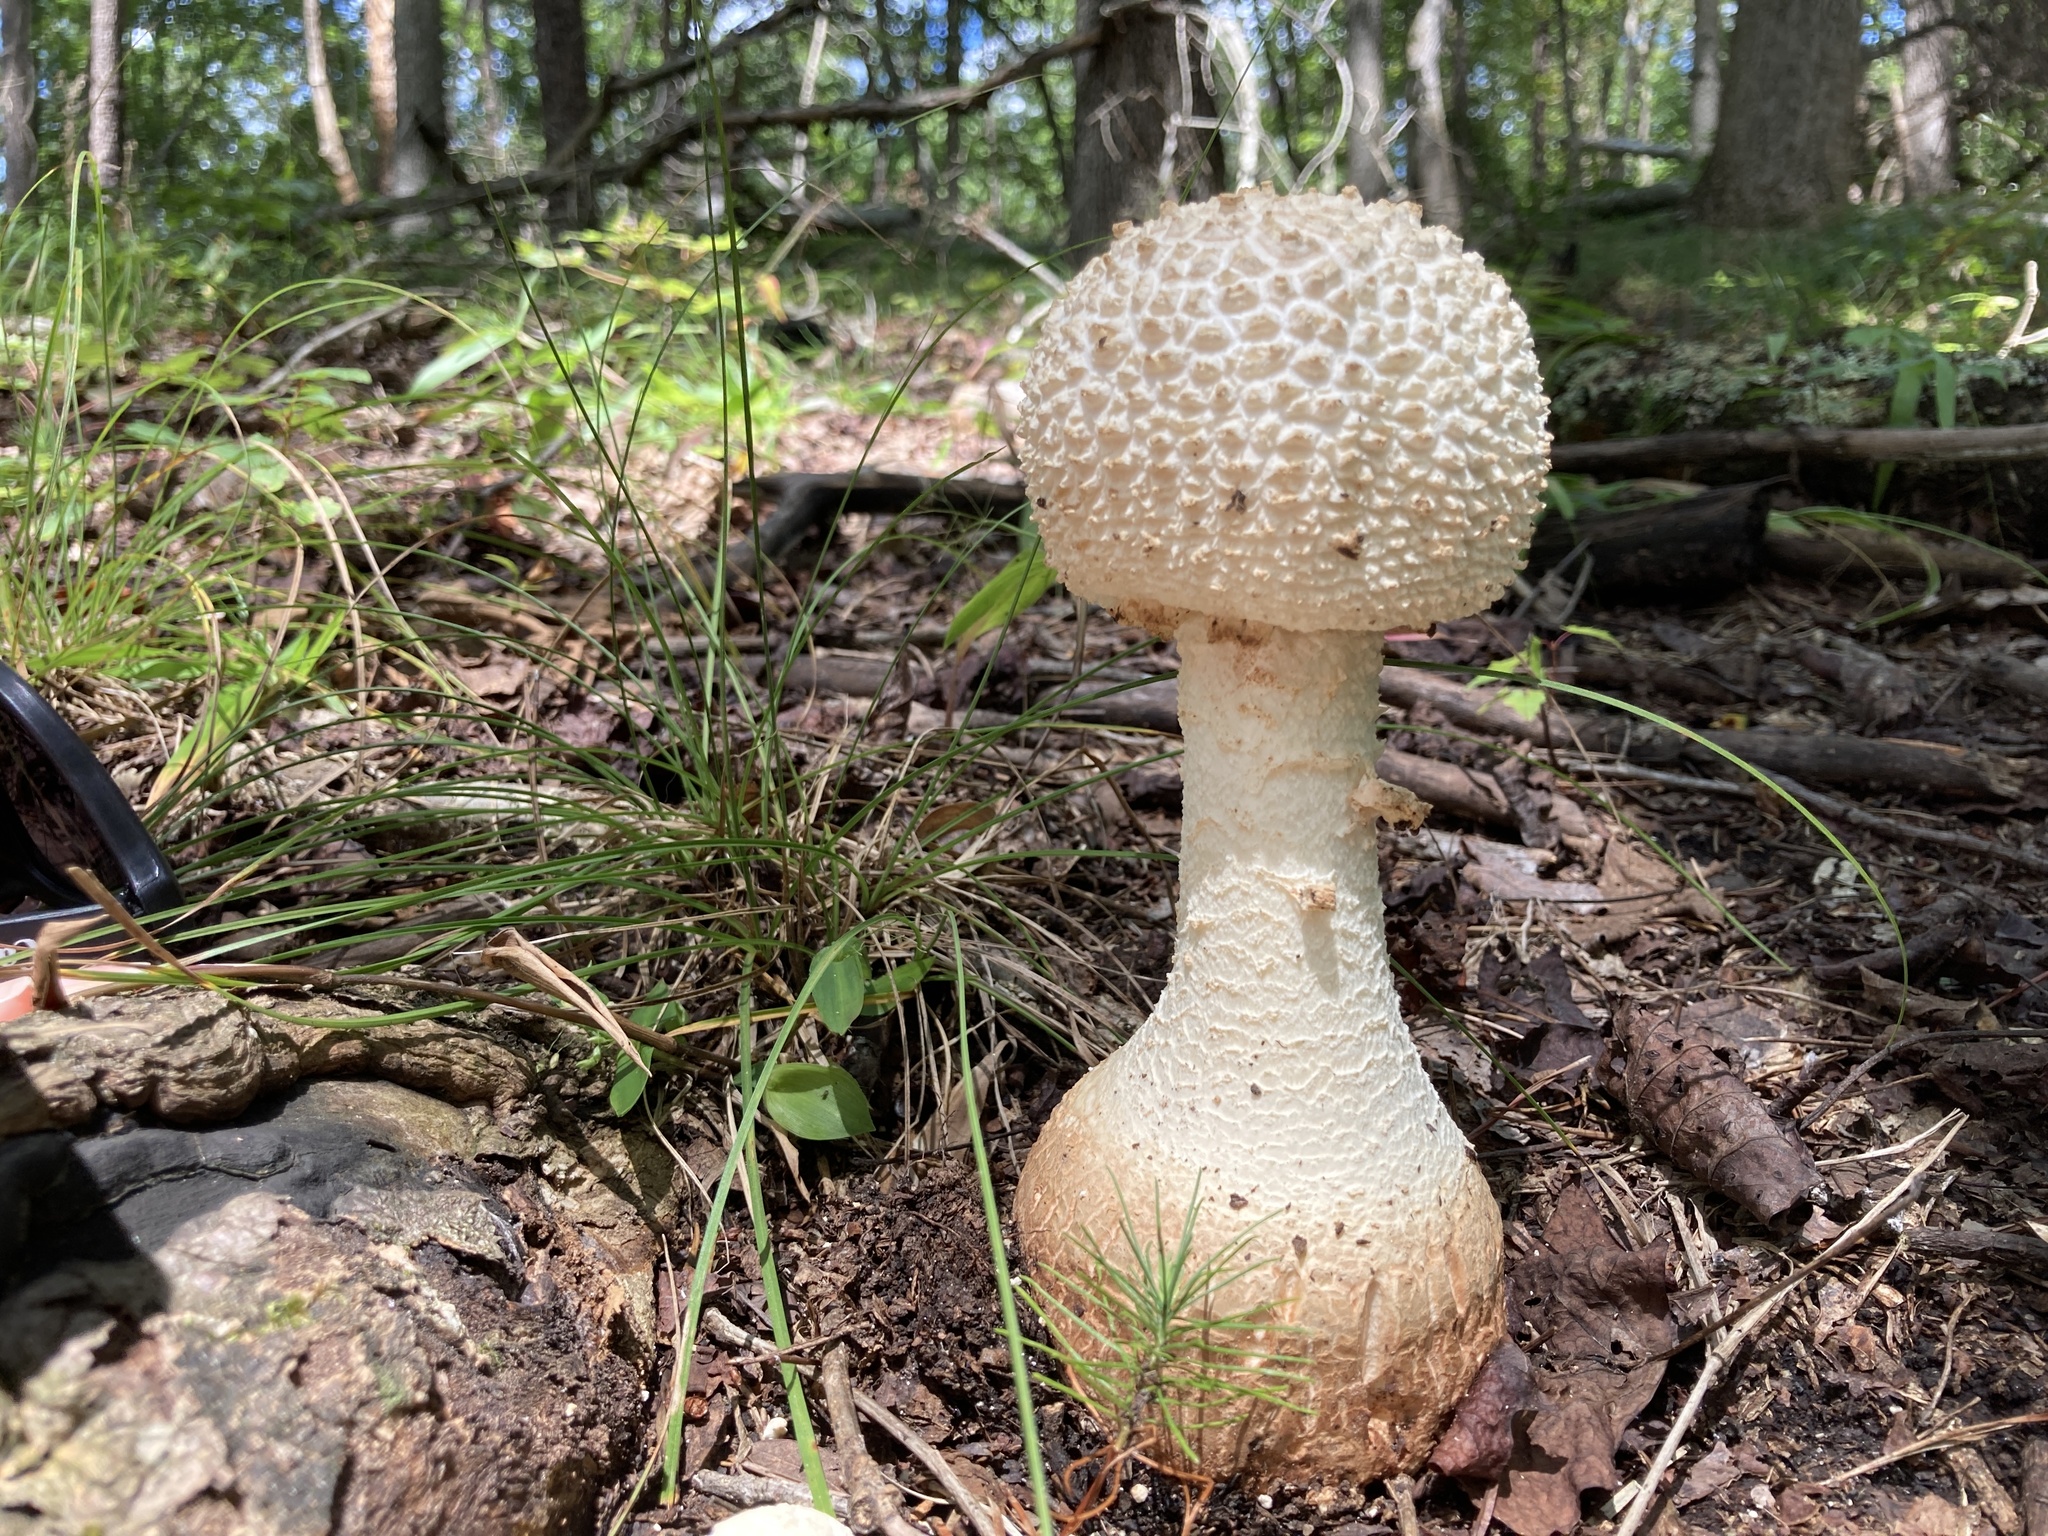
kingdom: Fungi
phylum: Basidiomycota
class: Agaricomycetes
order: Agaricales
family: Amanitaceae
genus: Amanita
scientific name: Amanita abrupta
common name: American abrupt-bulbed lepidella
